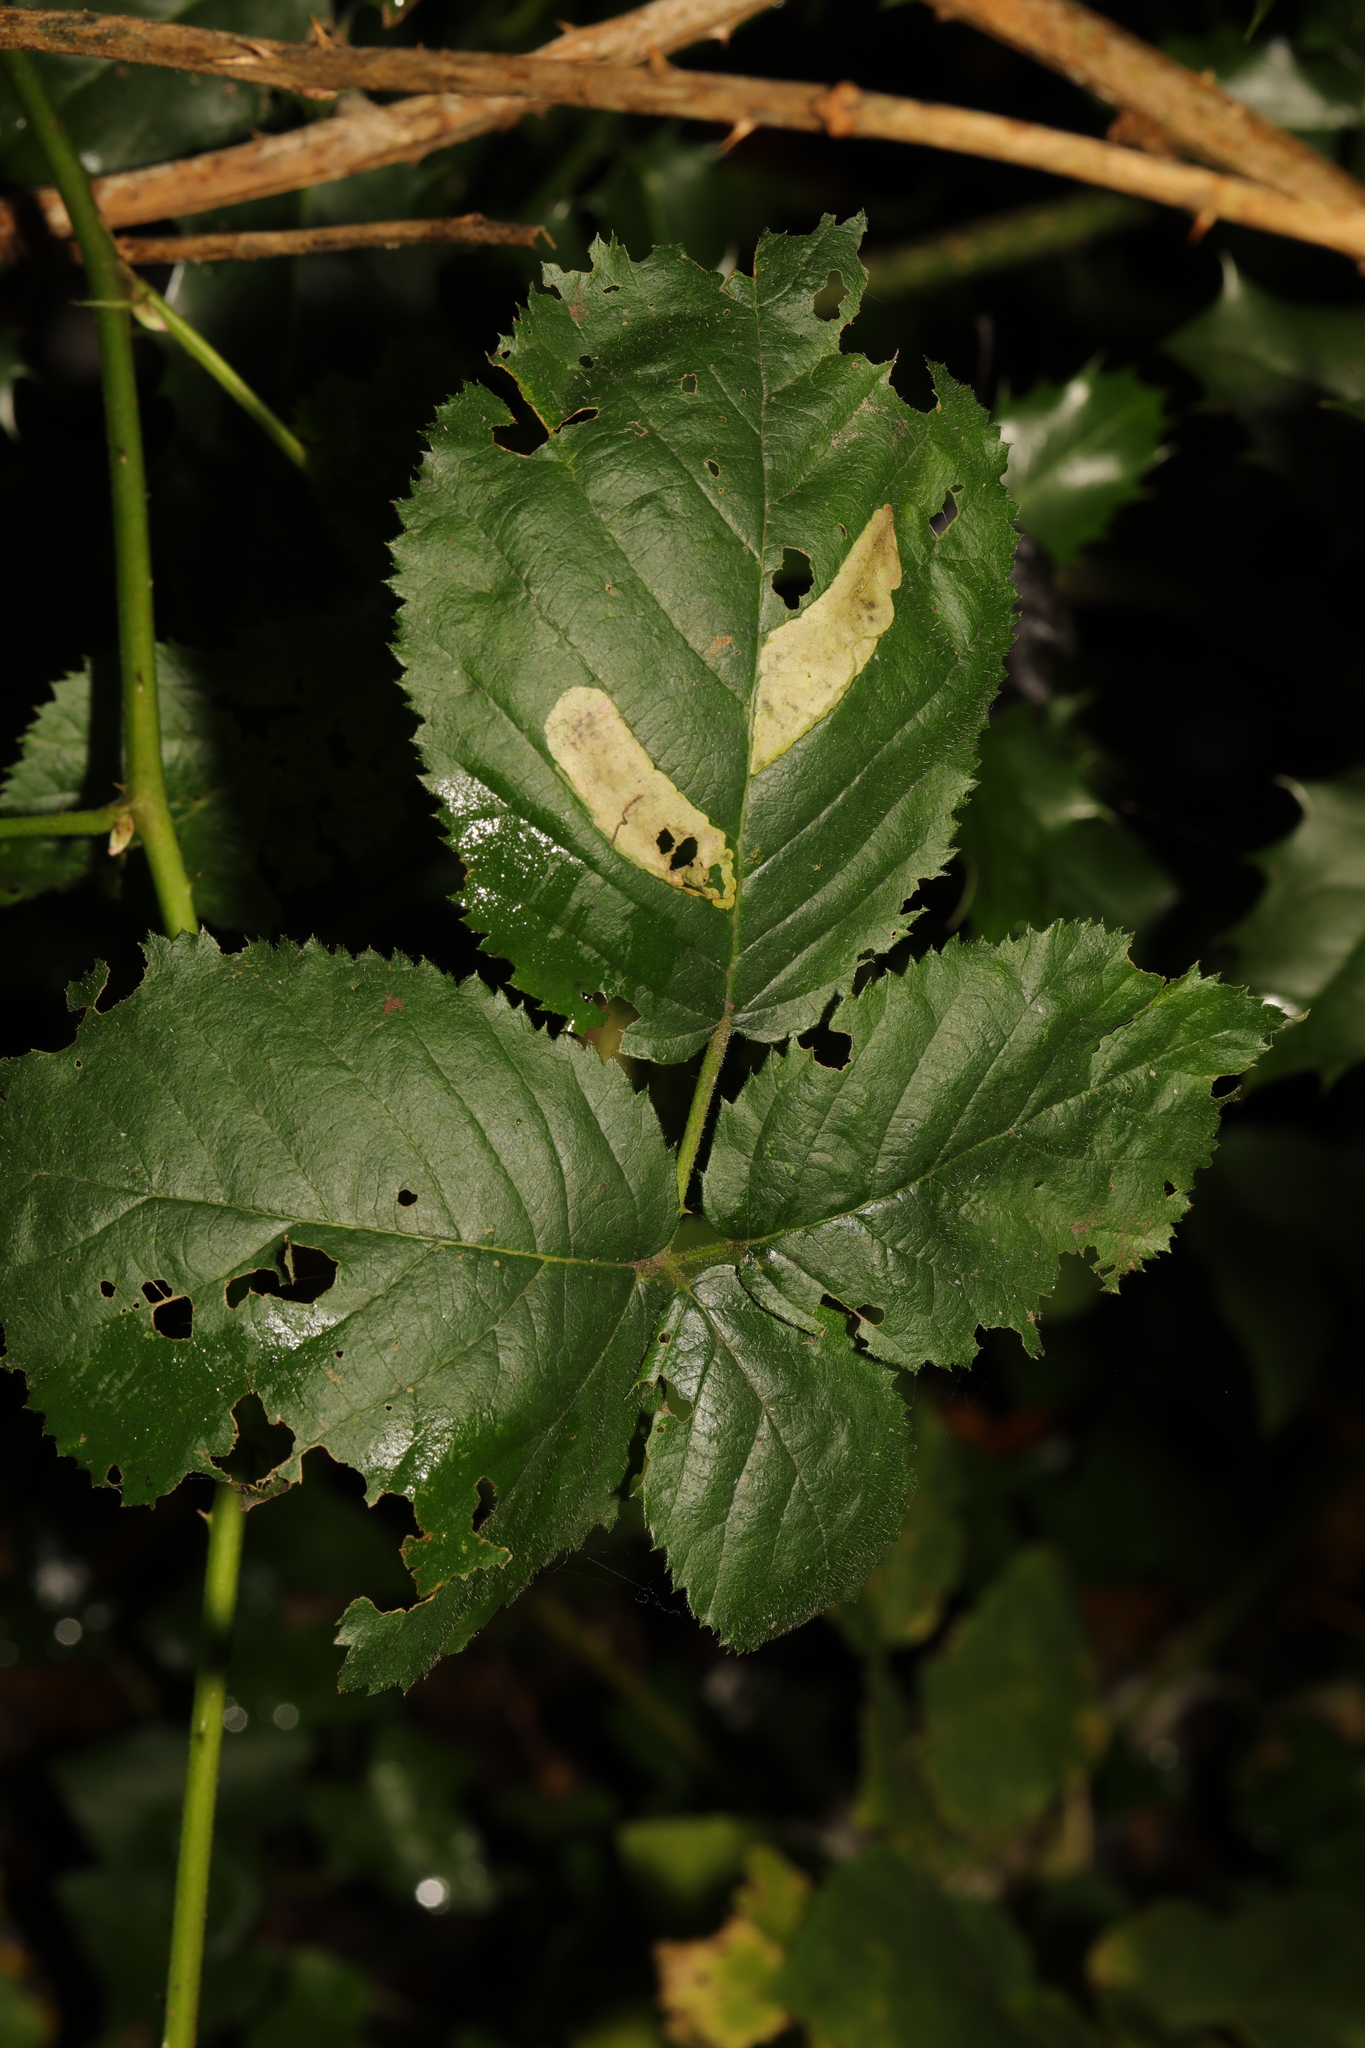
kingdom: Plantae
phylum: Tracheophyta
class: Magnoliopsida
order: Rosales
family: Rosaceae
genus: Rubus
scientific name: Rubus armeniacus
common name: Himalayan blackberry
